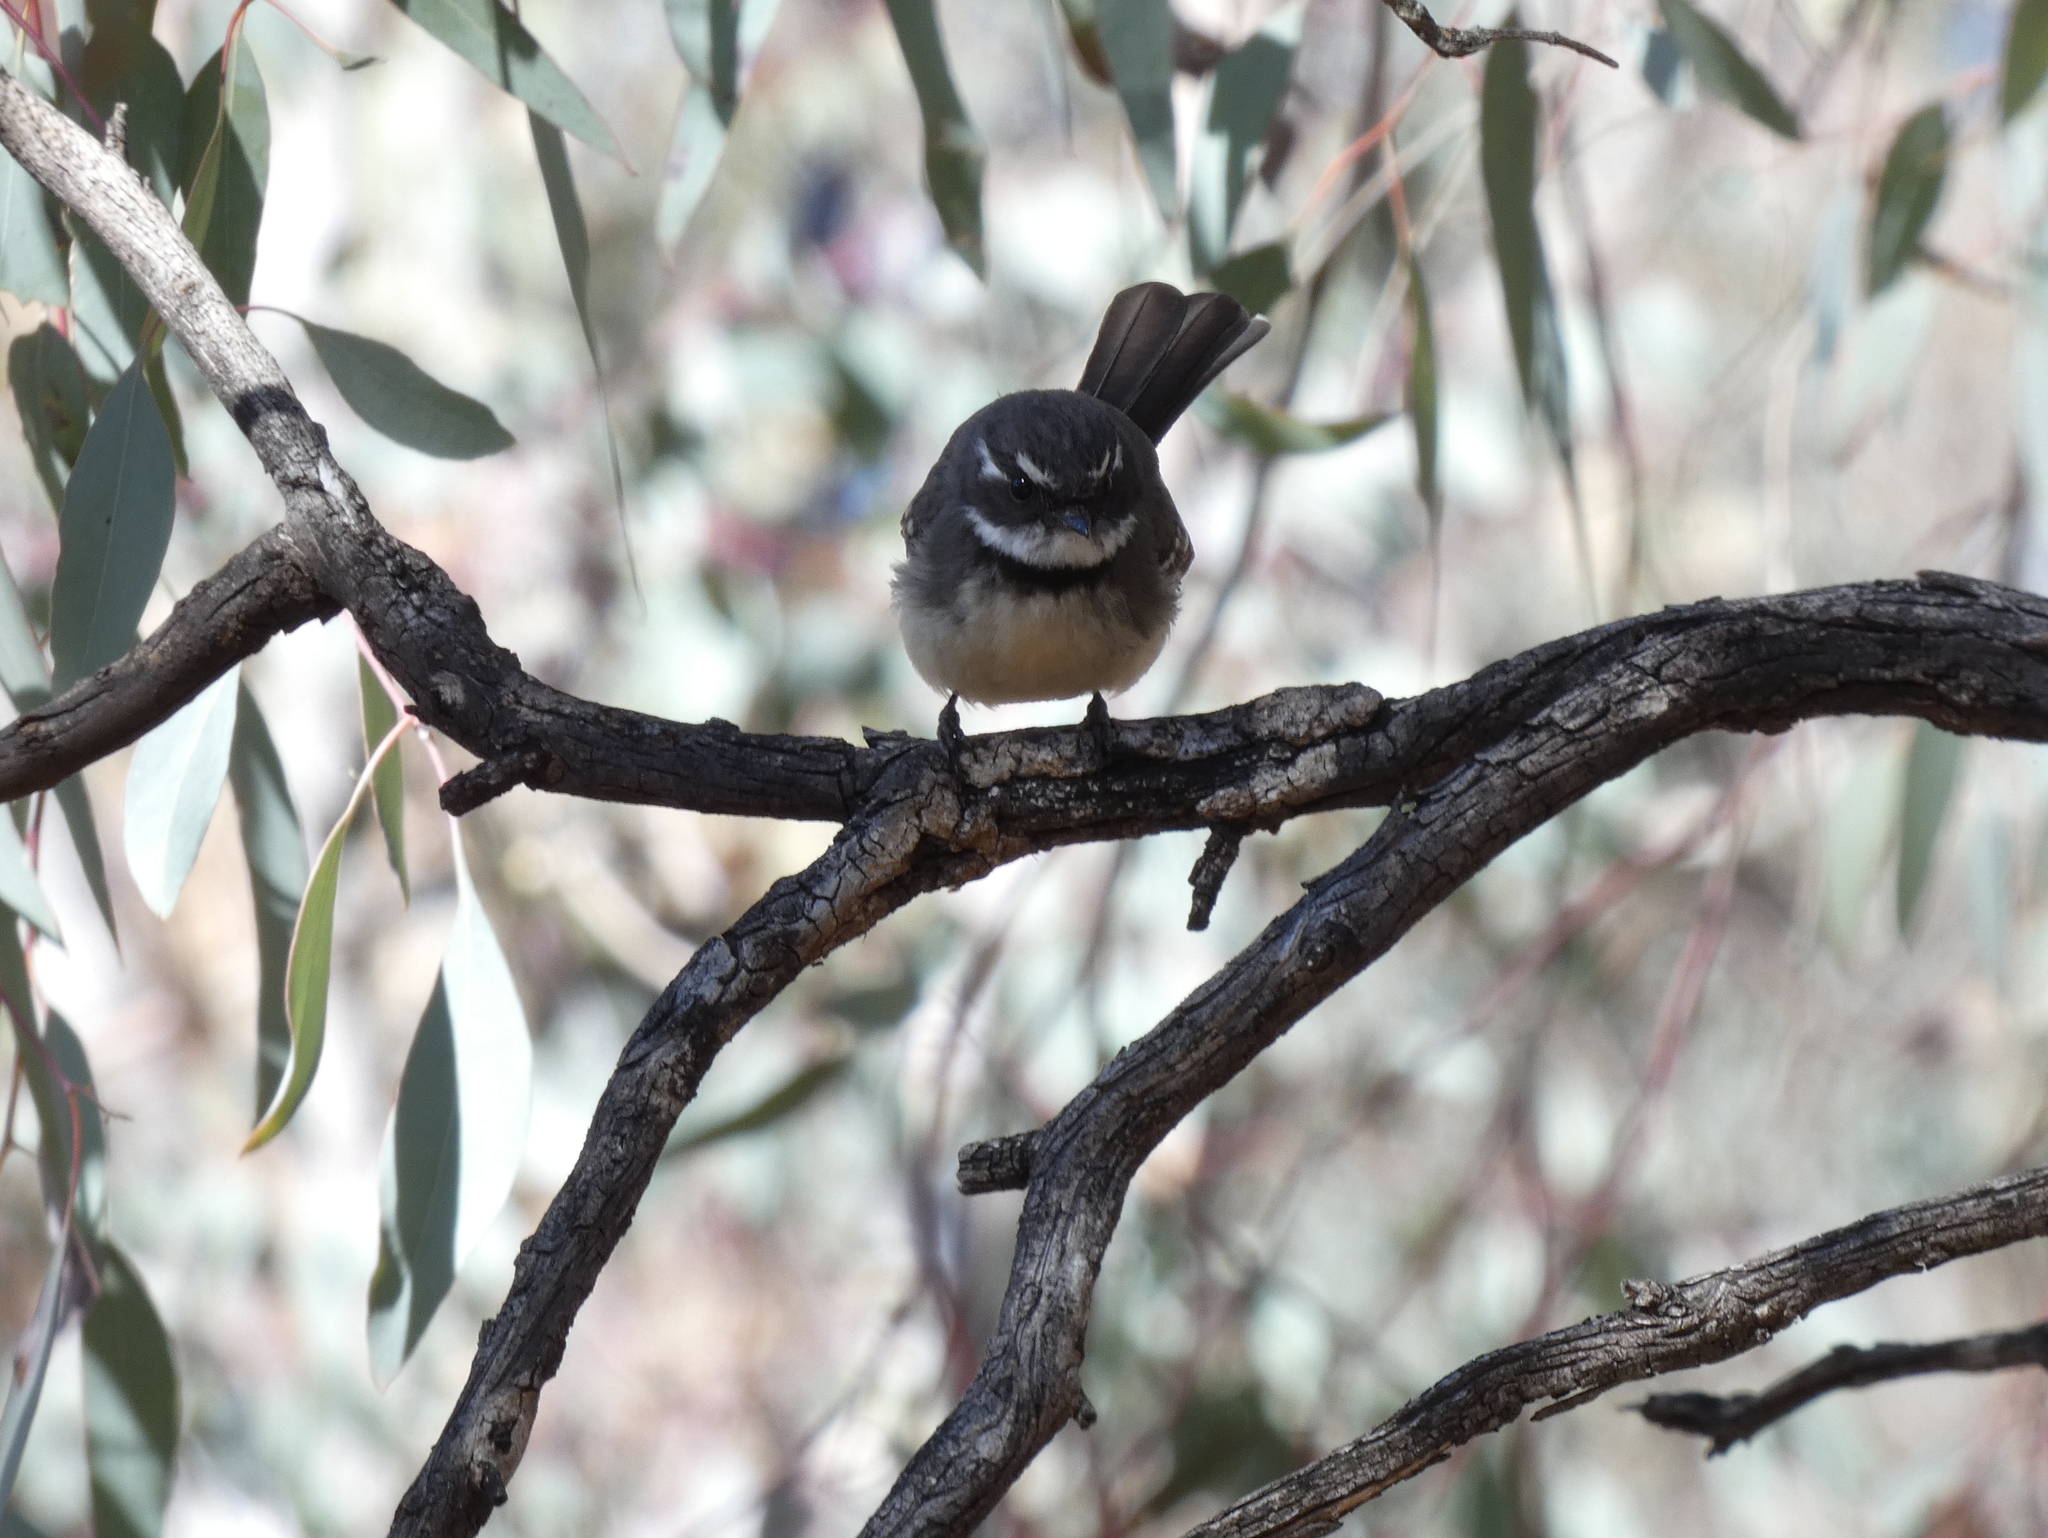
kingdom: Animalia
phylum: Chordata
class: Aves
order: Passeriformes
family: Rhipiduridae
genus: Rhipidura
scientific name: Rhipidura albiscapa
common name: Grey fantail
